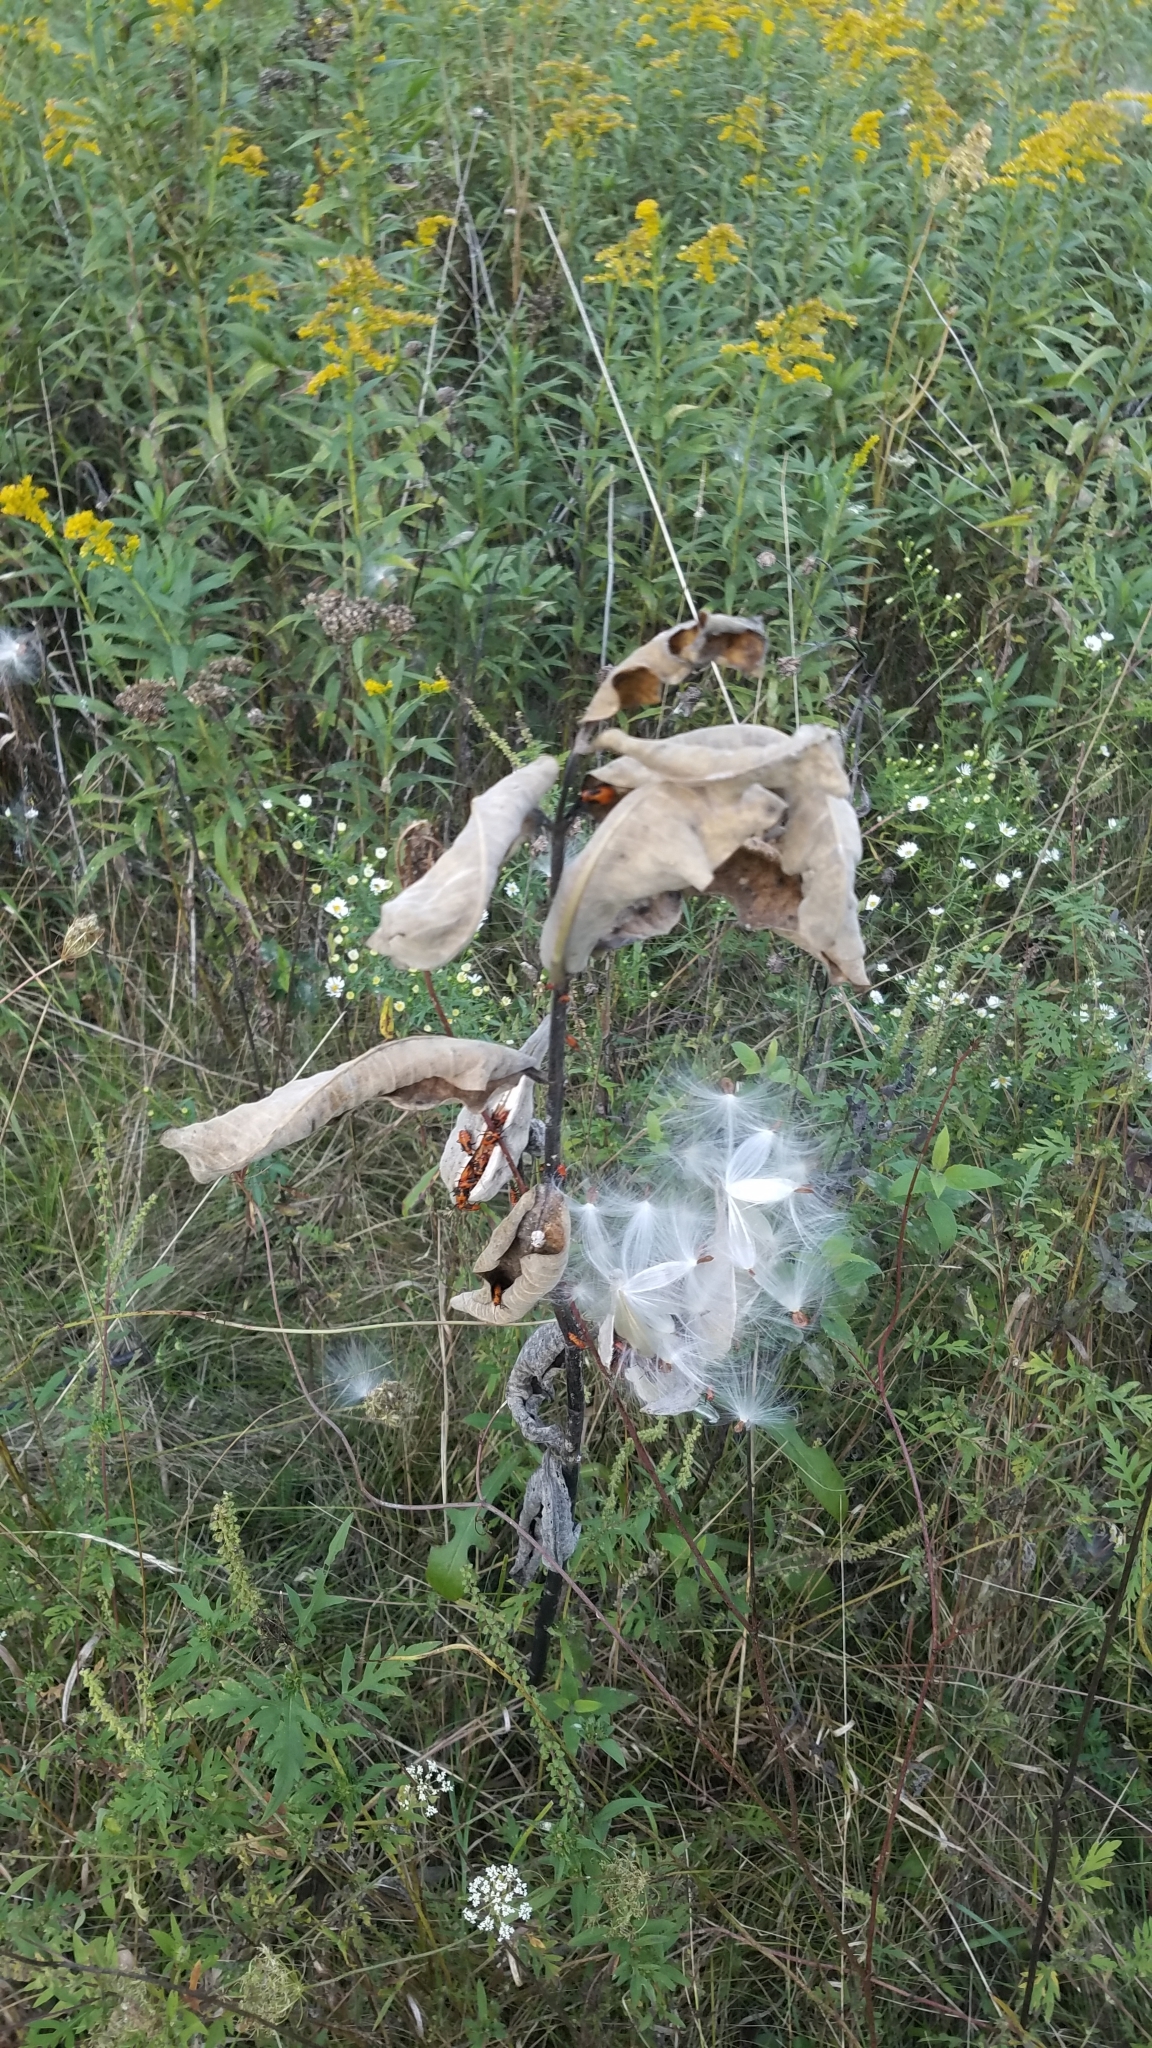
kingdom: Plantae
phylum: Tracheophyta
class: Magnoliopsida
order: Gentianales
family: Apocynaceae
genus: Asclepias
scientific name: Asclepias syriaca
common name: Common milkweed
